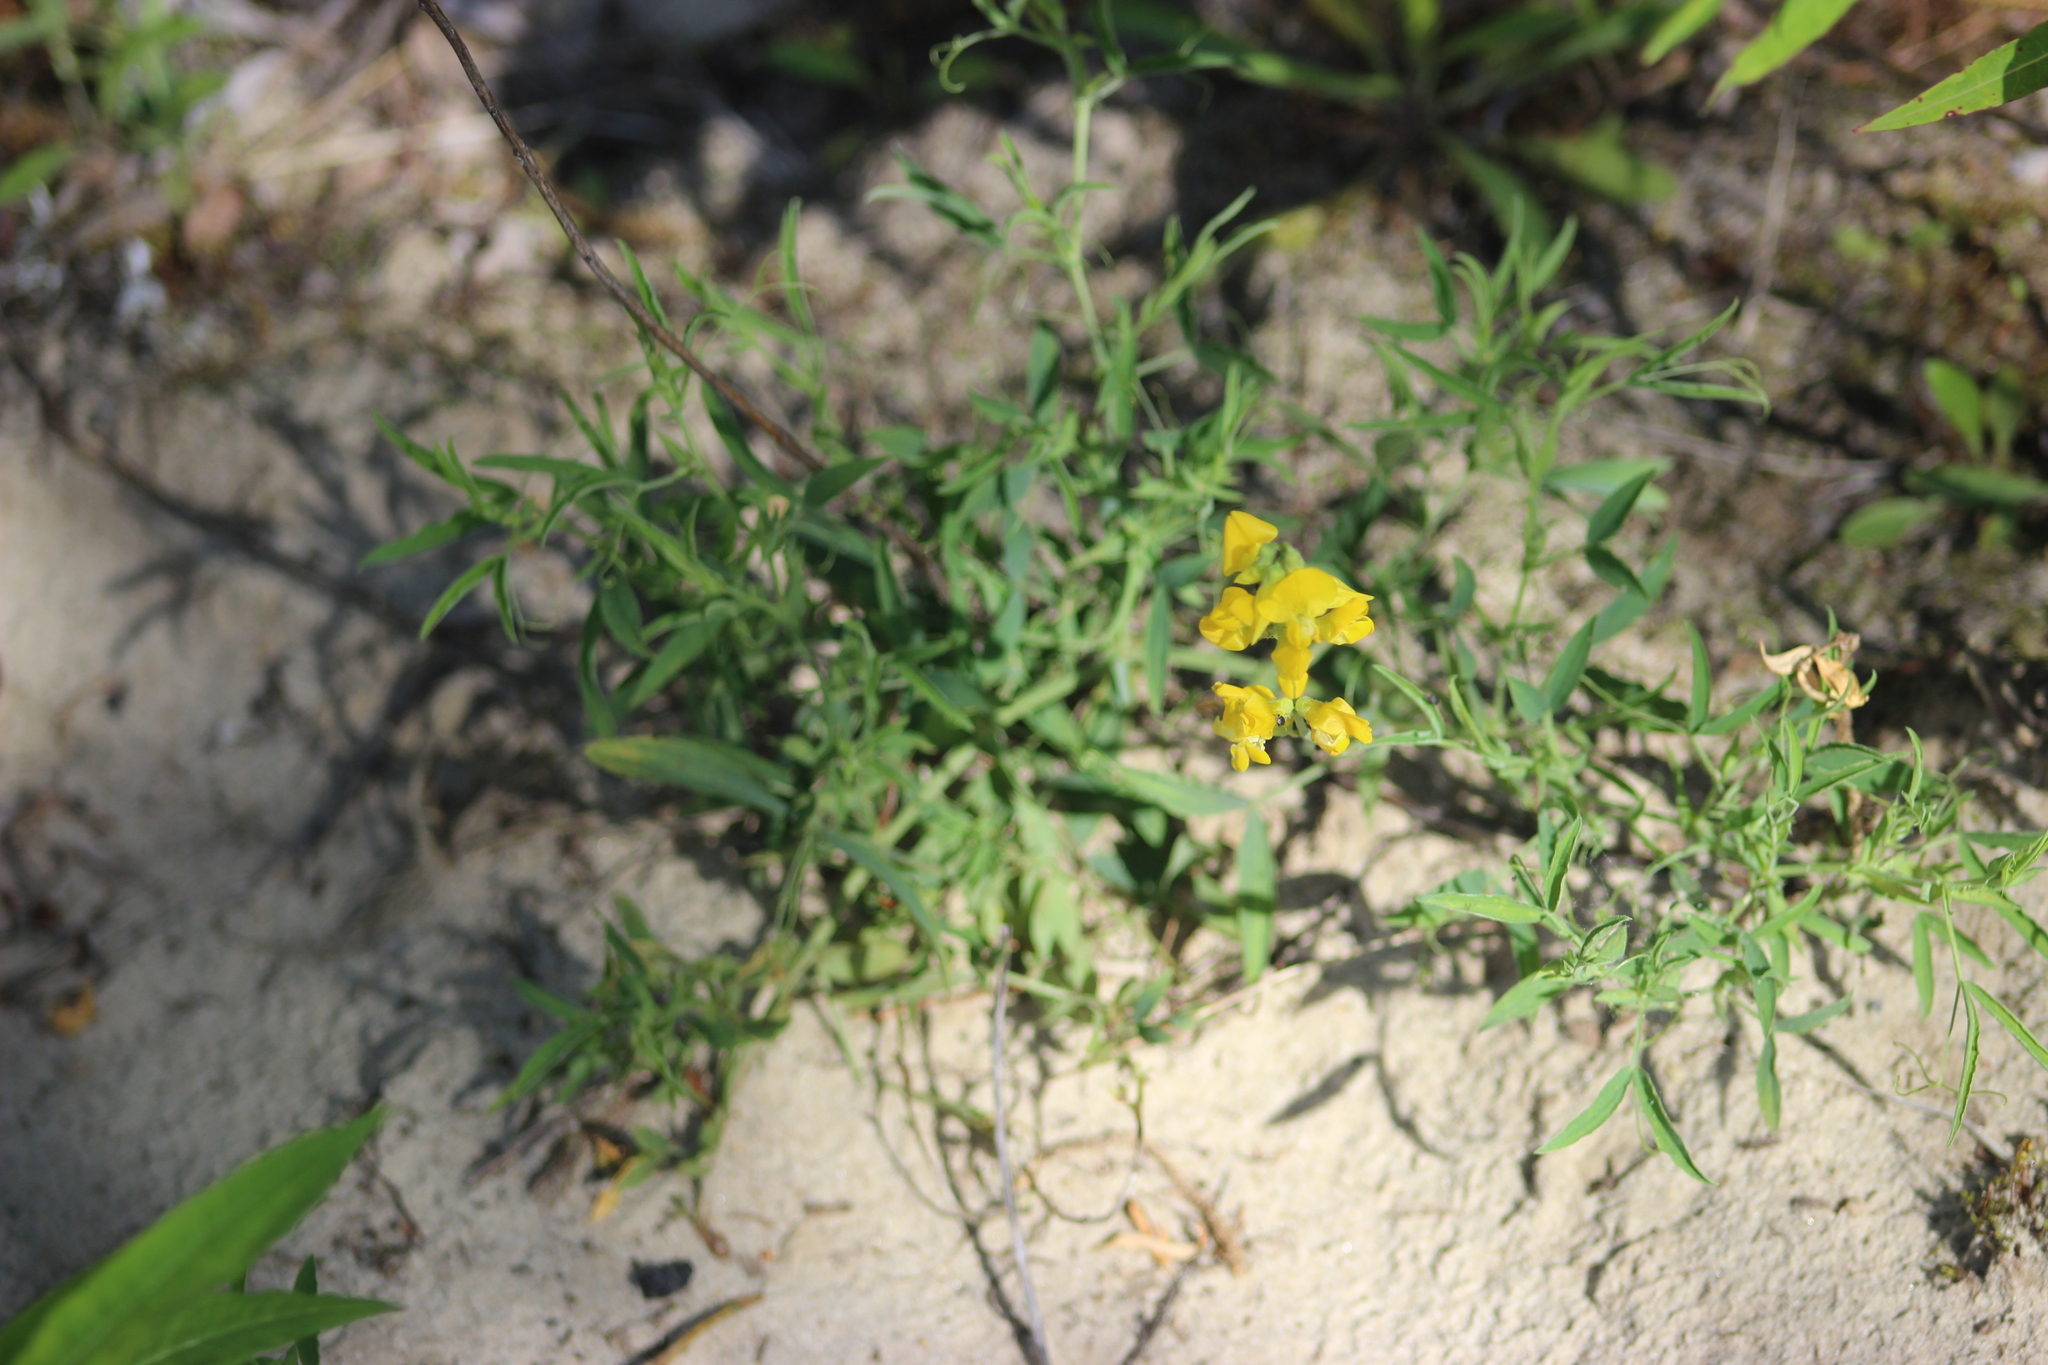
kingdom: Plantae
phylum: Tracheophyta
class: Magnoliopsida
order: Fabales
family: Fabaceae
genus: Lathyrus
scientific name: Lathyrus pratensis
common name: Meadow vetchling
